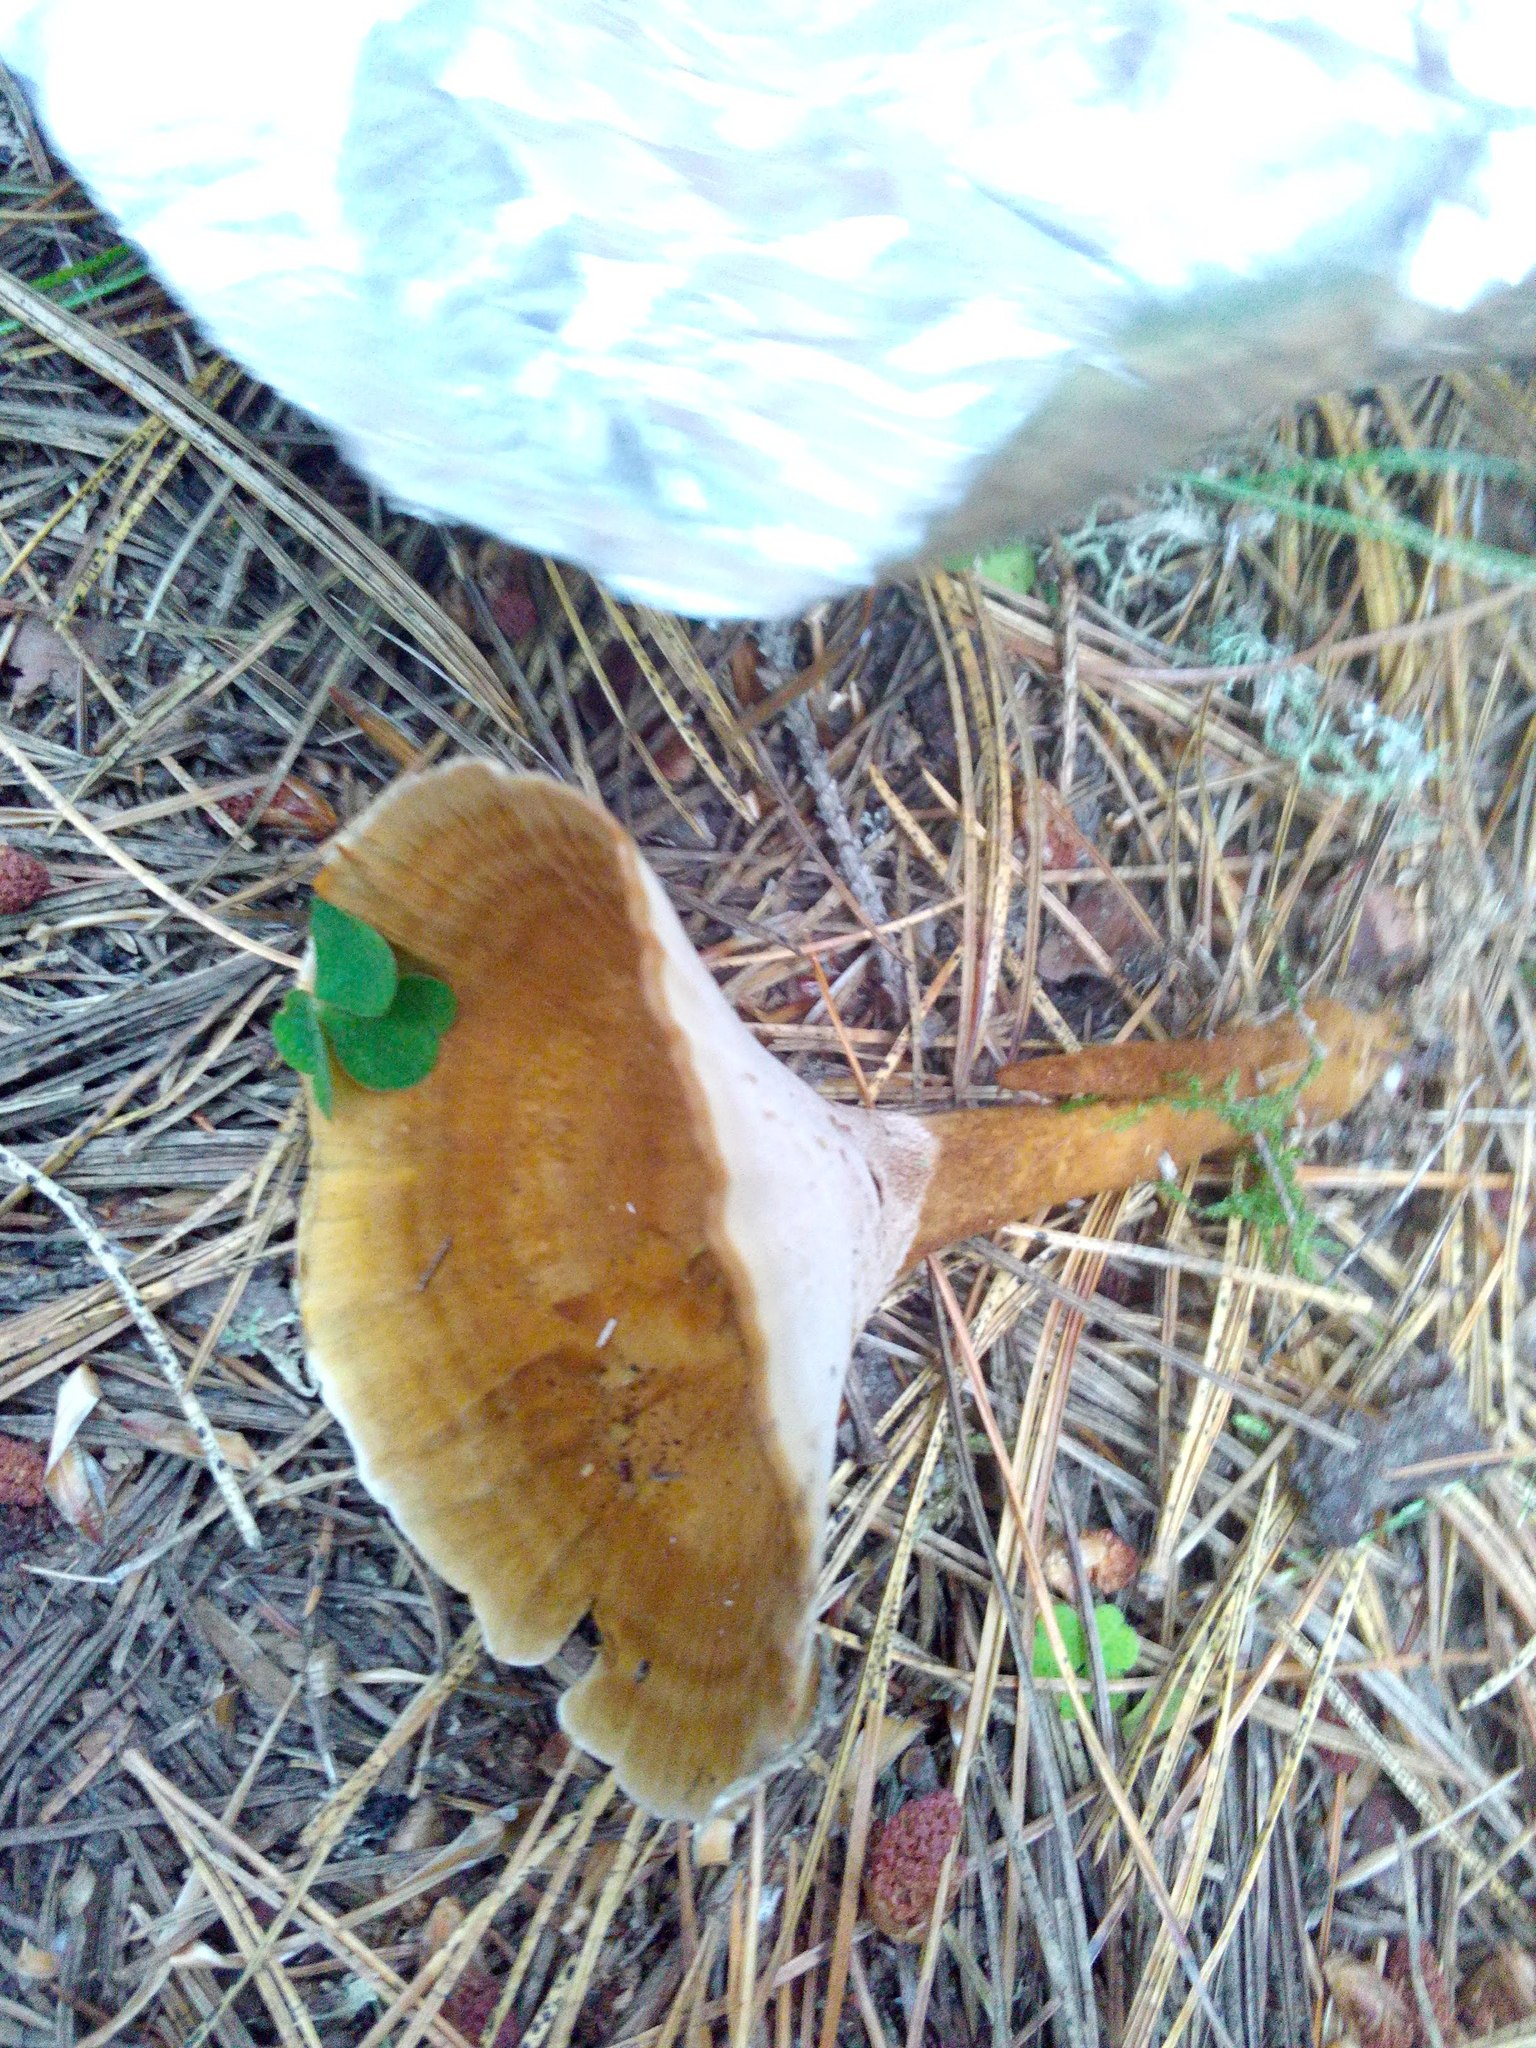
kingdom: Fungi
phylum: Basidiomycota
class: Agaricomycetes
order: Hymenochaetales
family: Hymenochaetaceae
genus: Coltricia
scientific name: Coltricia perennis
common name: Tiger's eye
